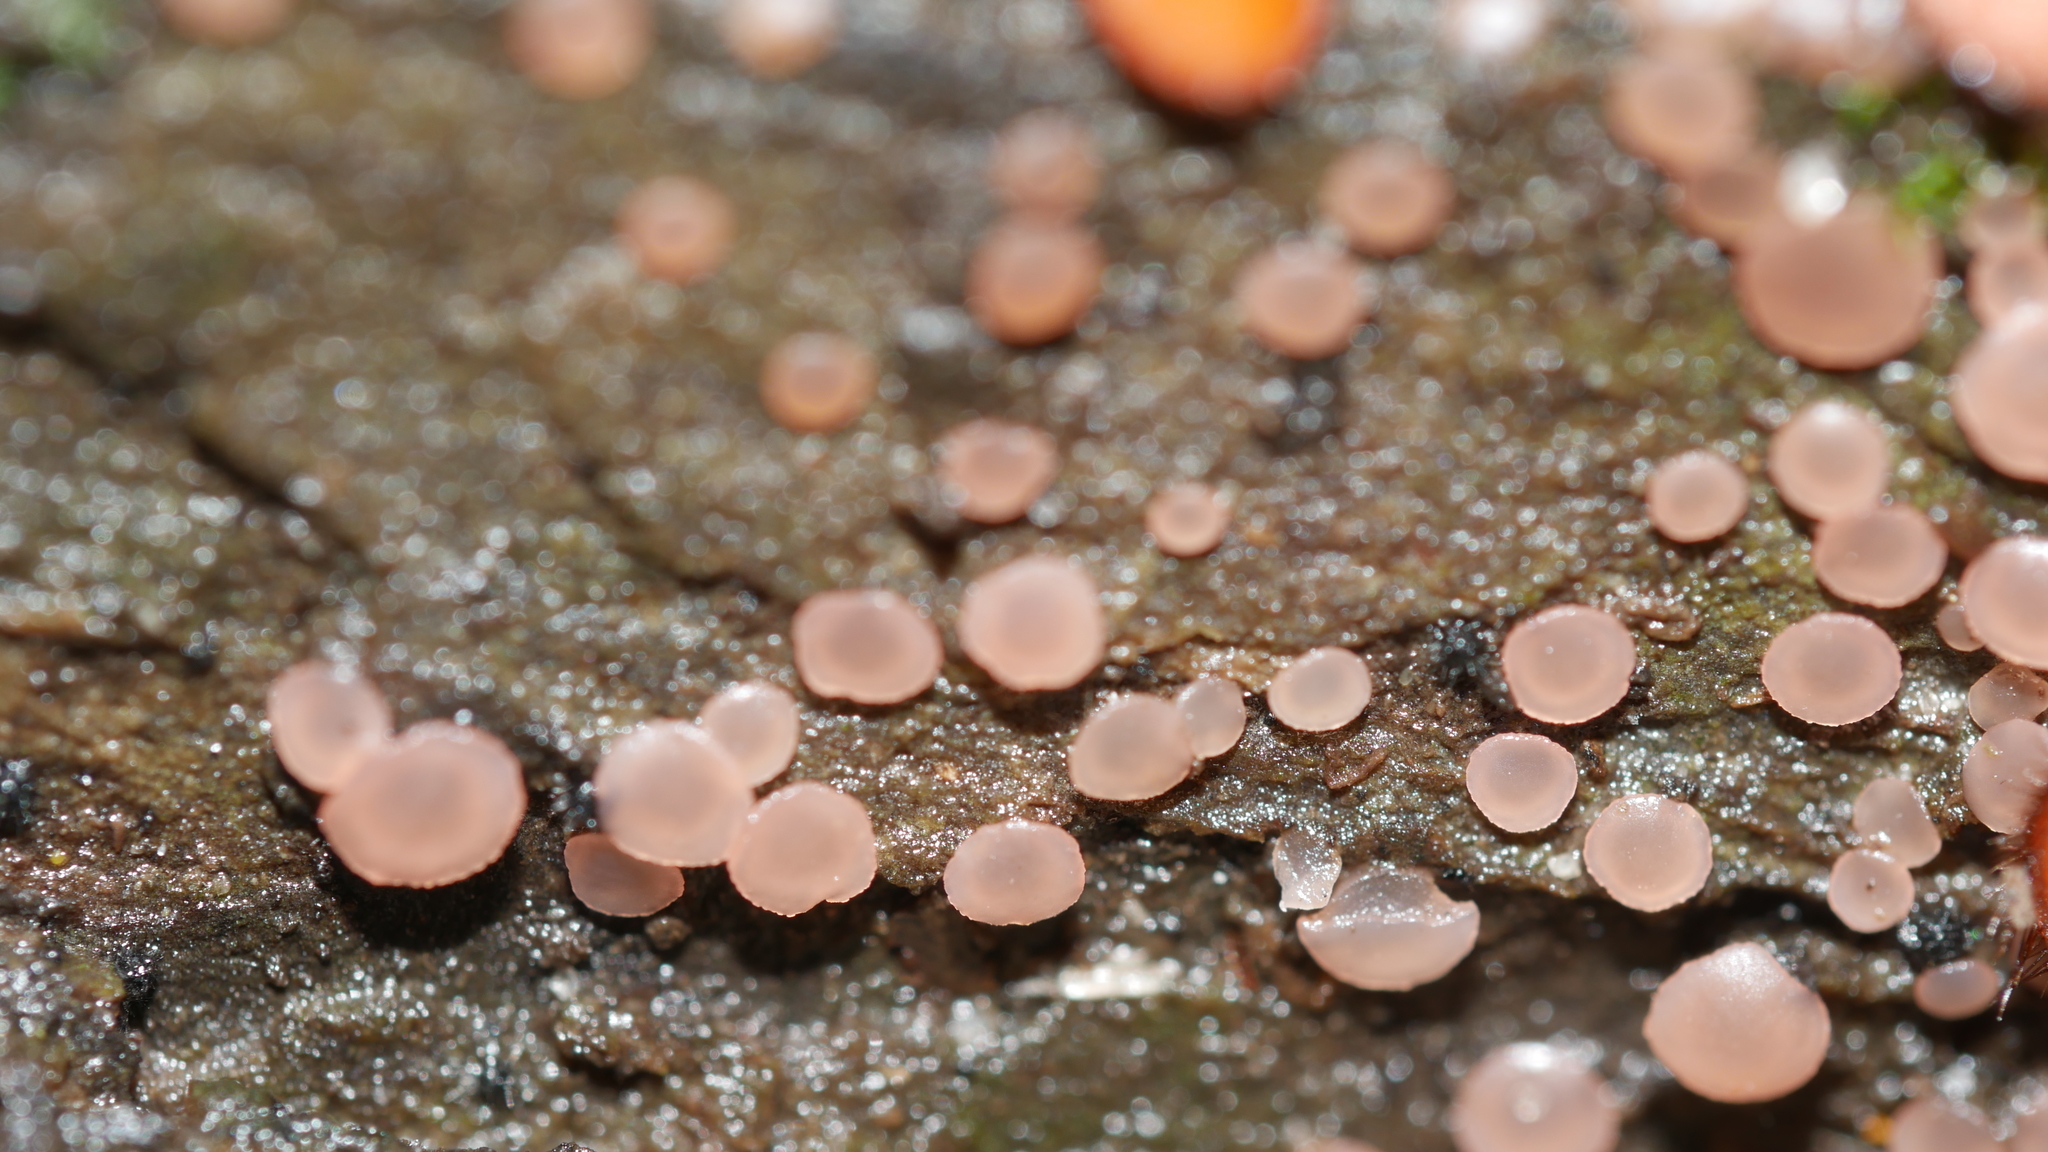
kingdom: Fungi
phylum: Ascomycota
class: Orbiliomycetes
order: Orbiliales
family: Orbiliaceae
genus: Orbilia
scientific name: Orbilia
